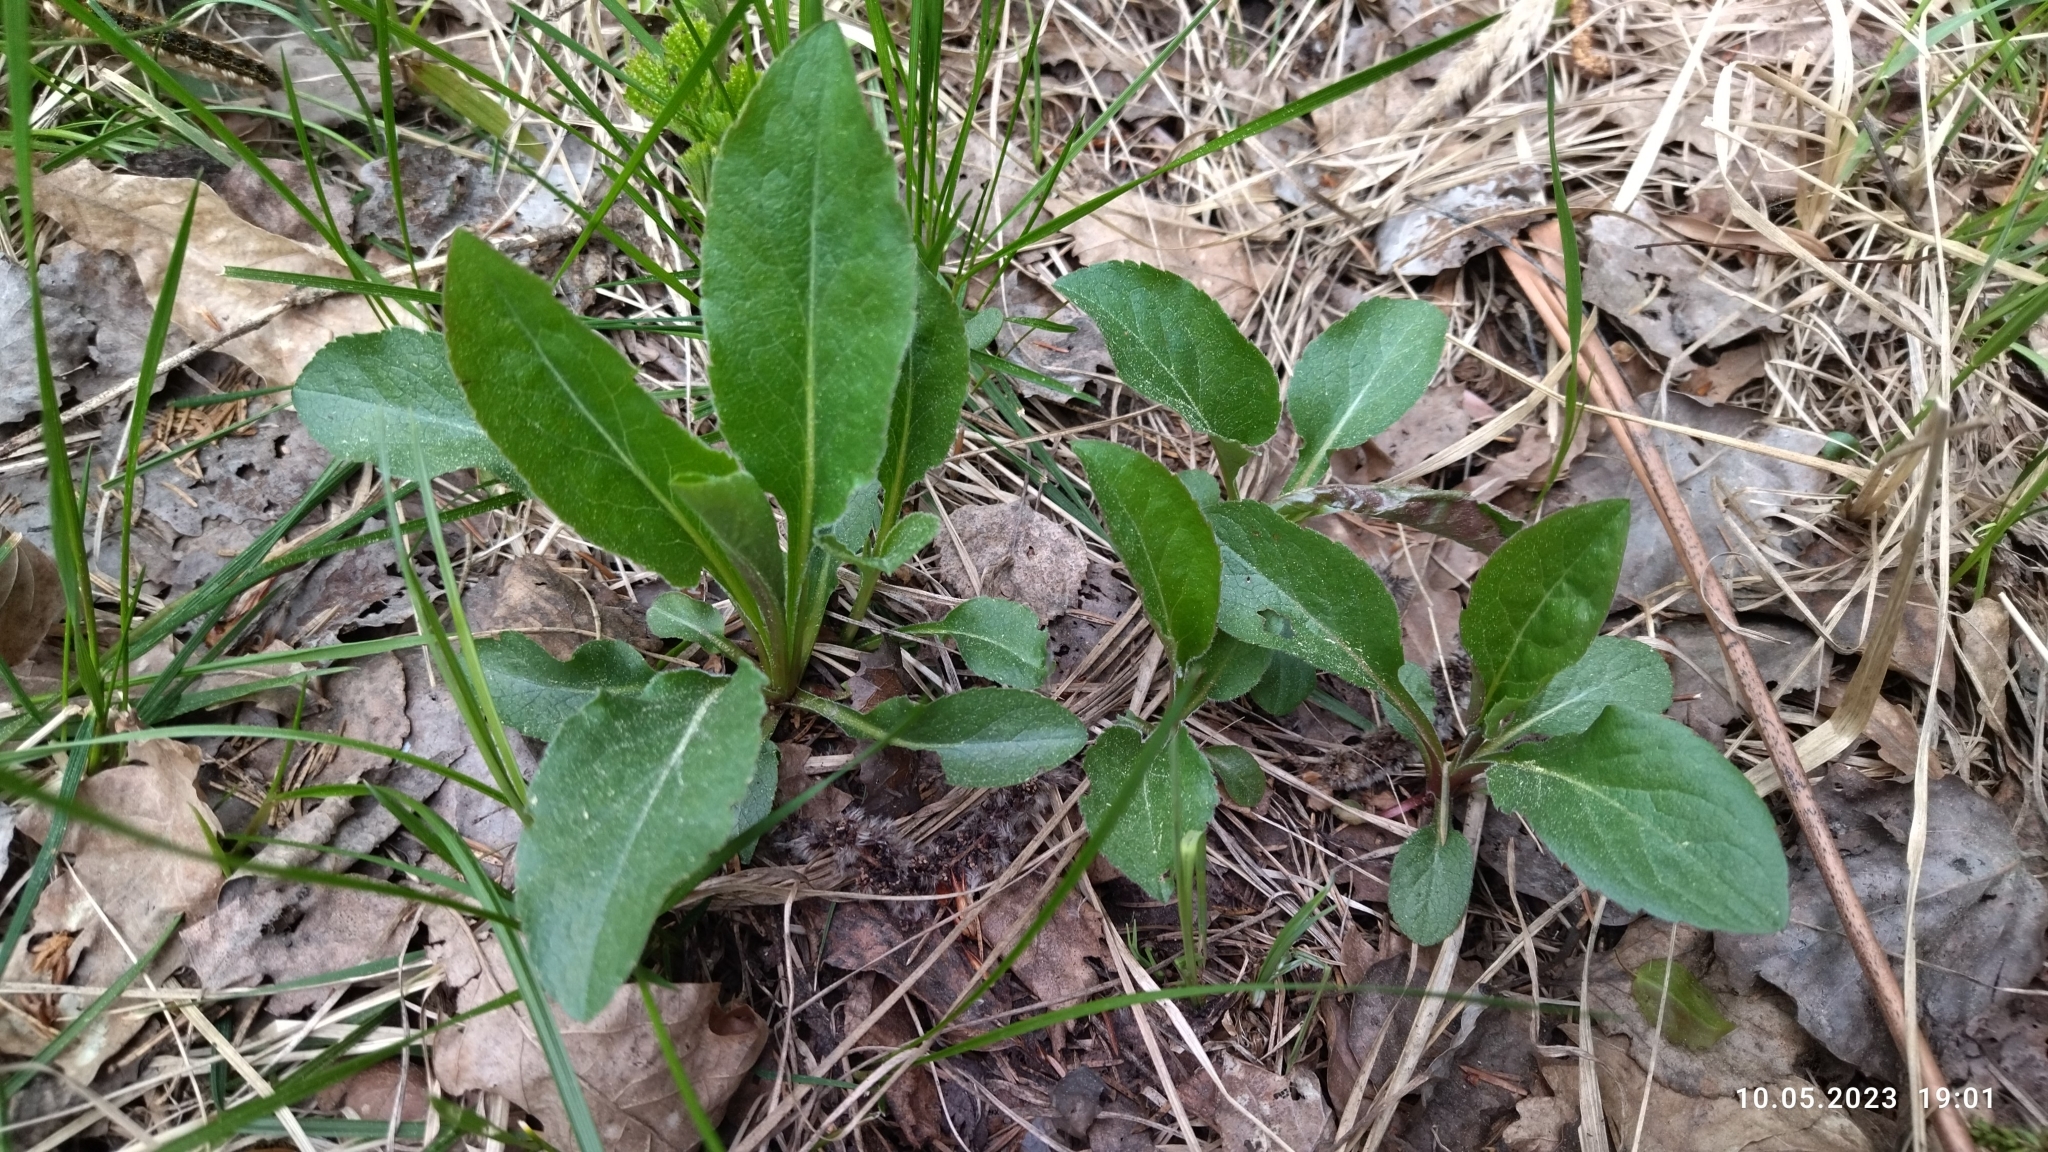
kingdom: Plantae
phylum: Tracheophyta
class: Magnoliopsida
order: Asterales
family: Asteraceae
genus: Solidago
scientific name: Solidago virgaurea
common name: Goldenrod
